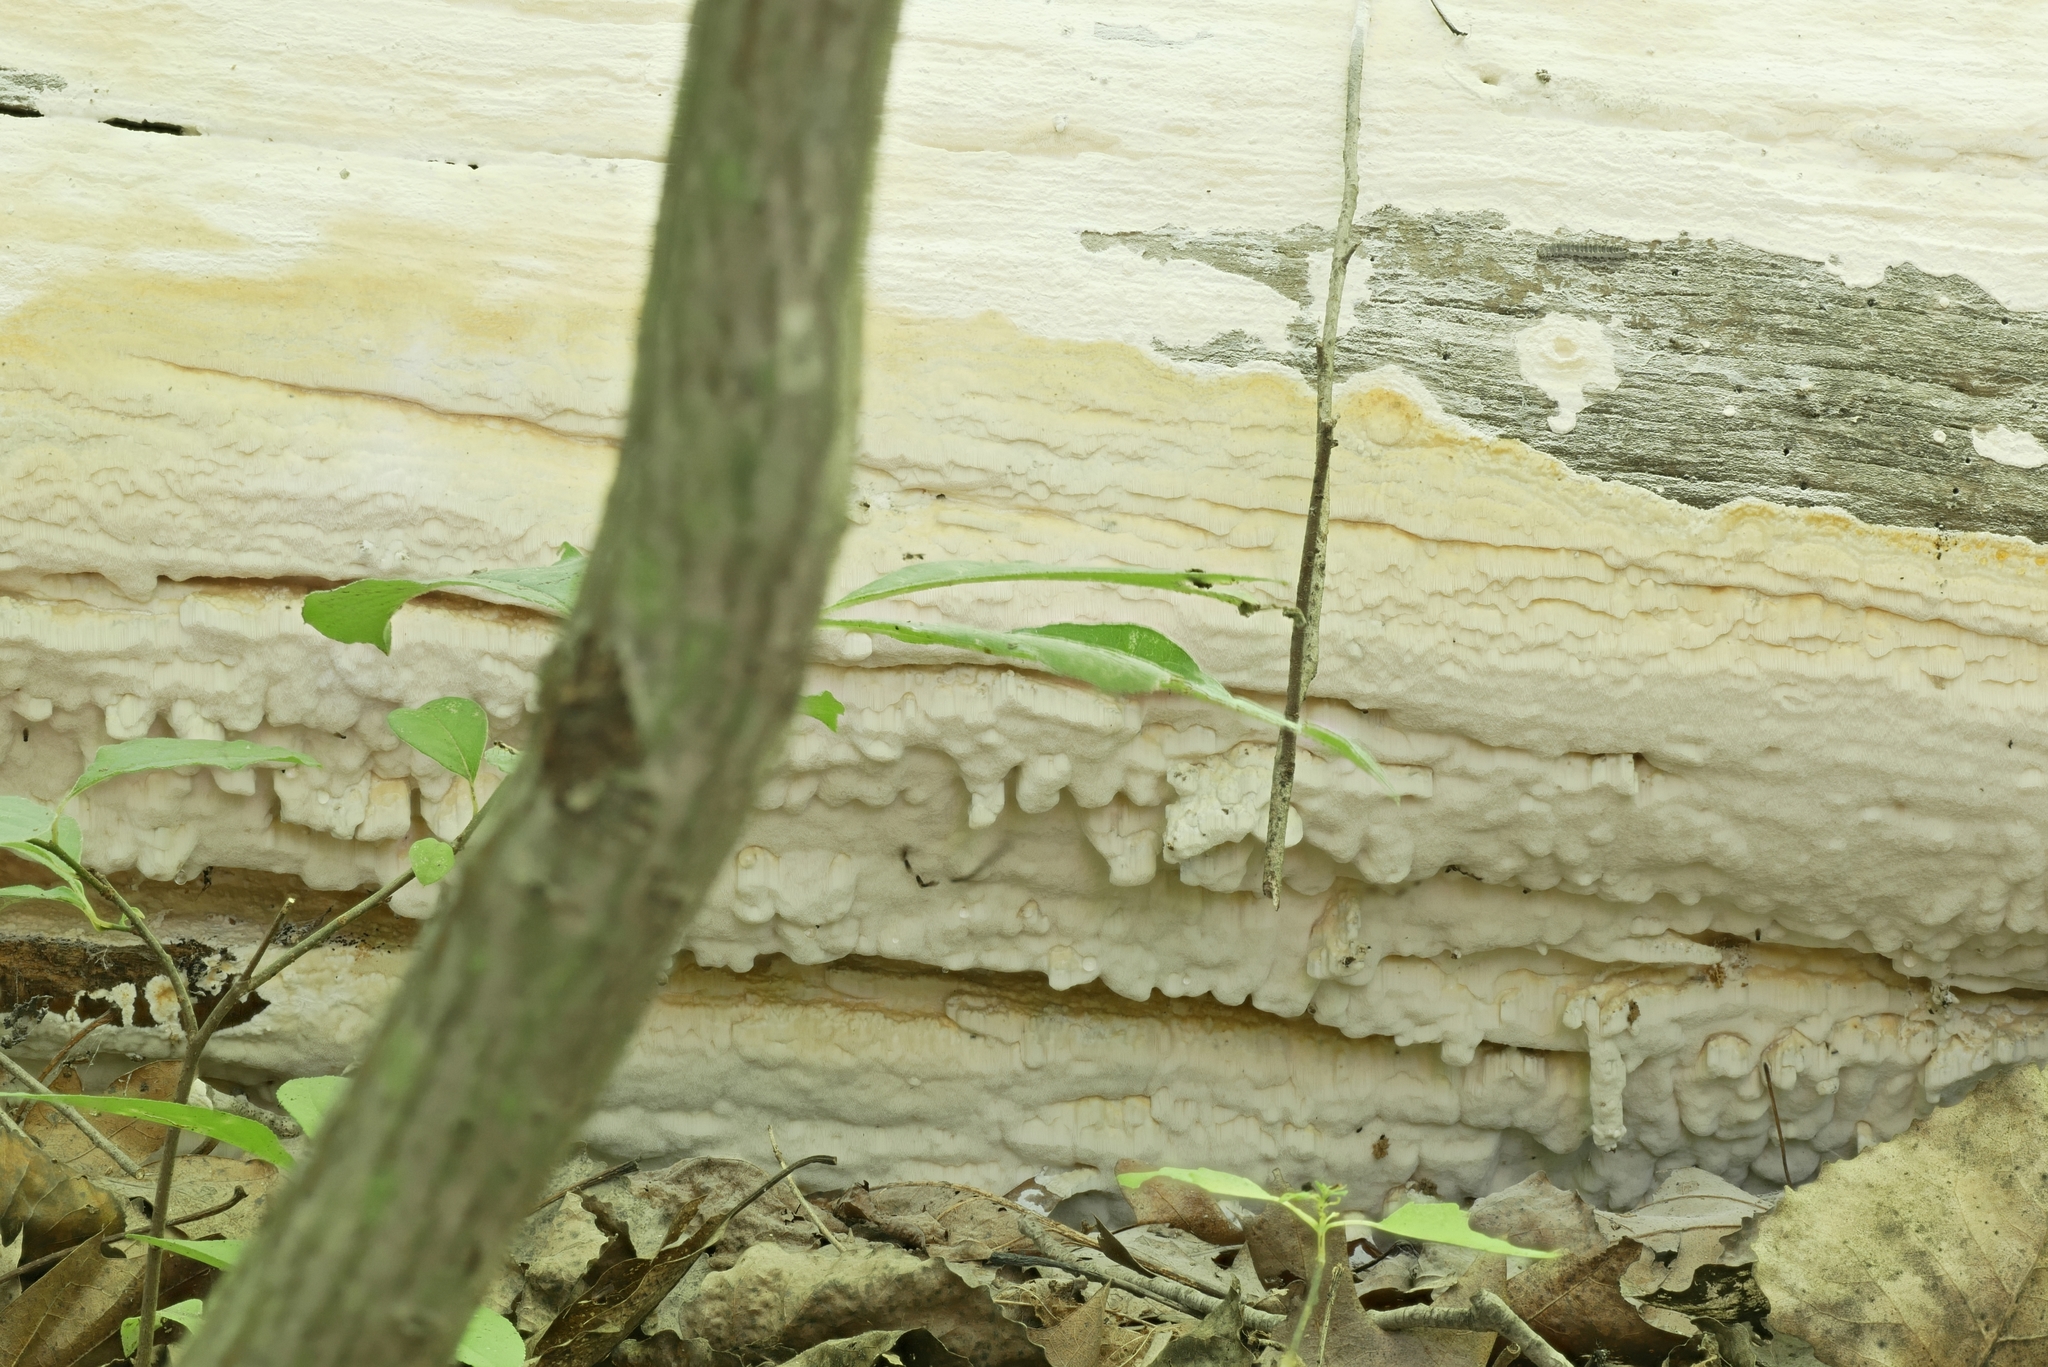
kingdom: Fungi
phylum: Basidiomycota
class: Agaricomycetes
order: Polyporales
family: Polyporaceae
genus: Yuchengia
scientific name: Yuchengia narymica
